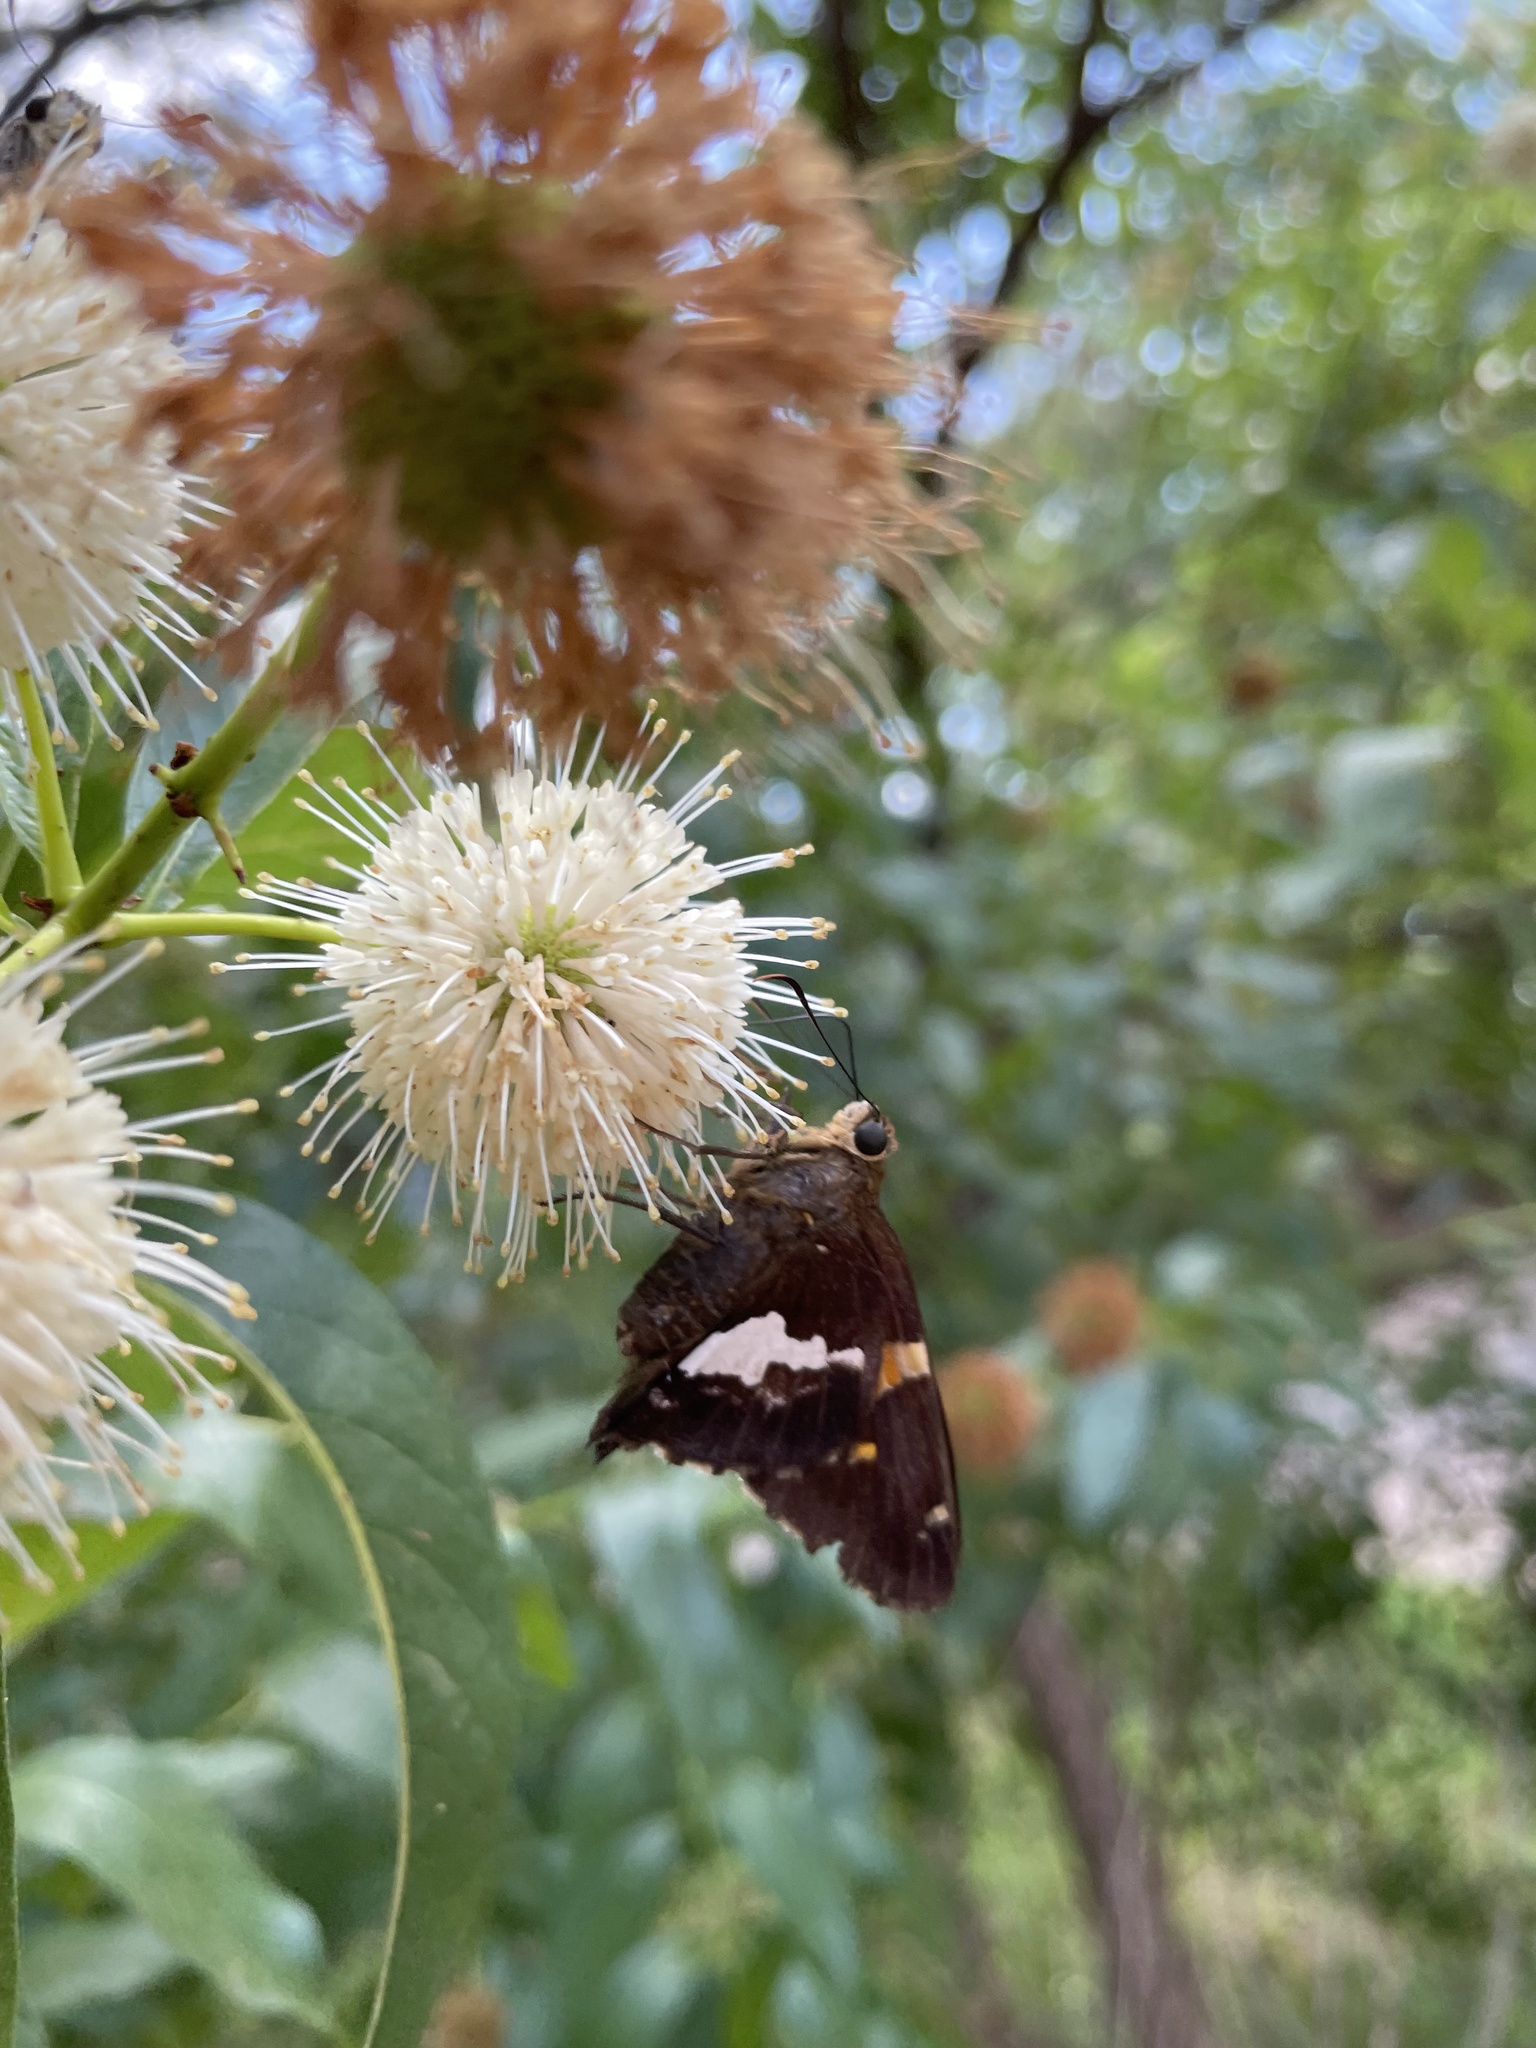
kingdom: Animalia
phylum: Arthropoda
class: Insecta
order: Lepidoptera
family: Hesperiidae
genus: Epargyreus
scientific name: Epargyreus clarus
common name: Silver-spotted skipper
